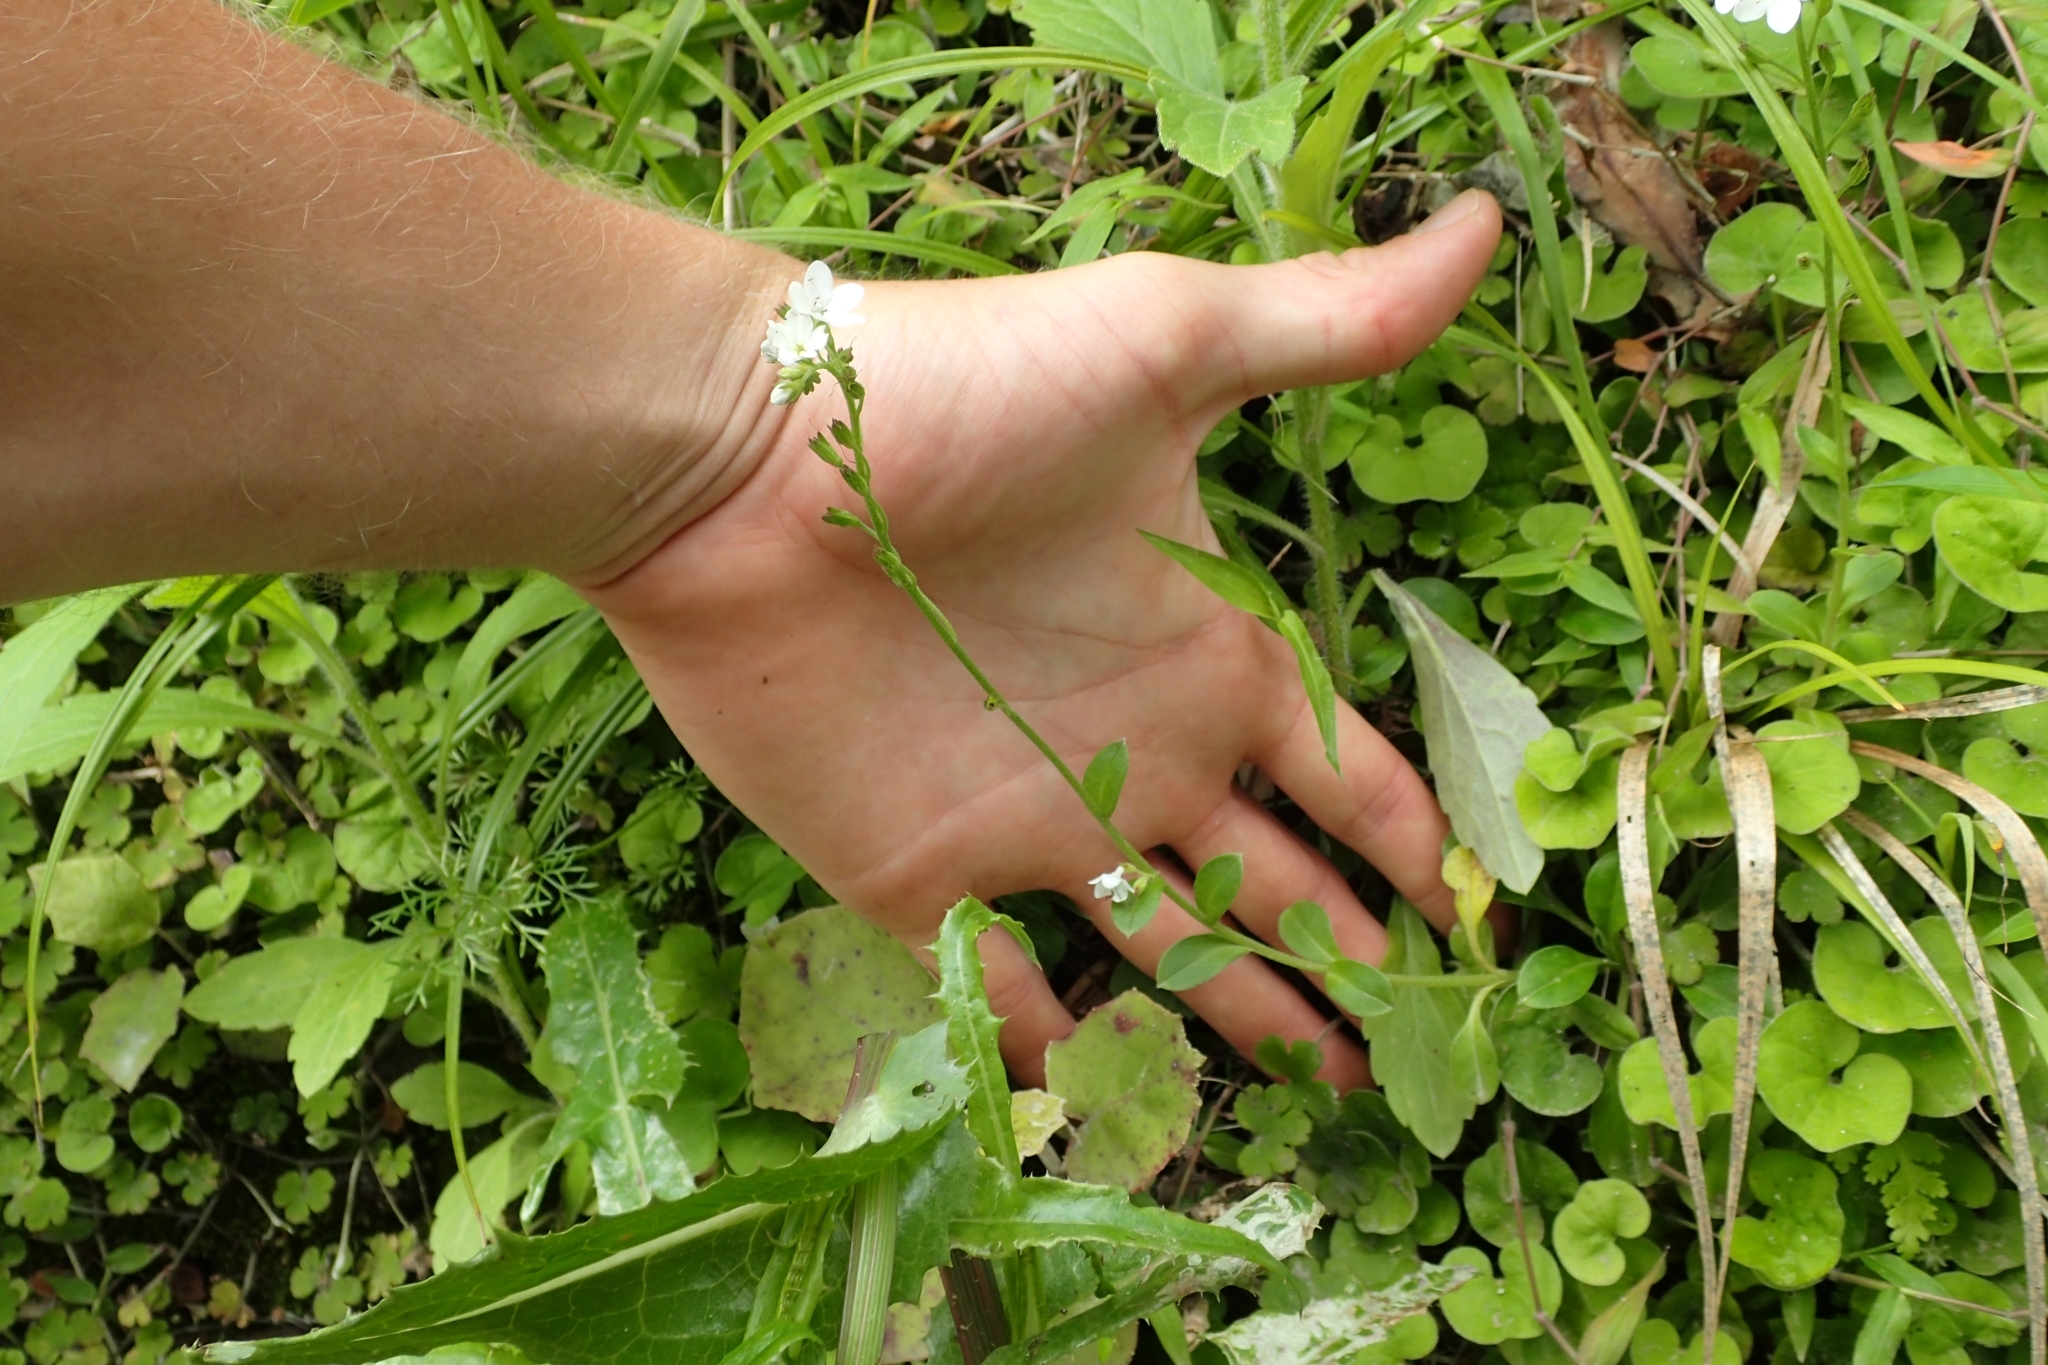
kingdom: Plantae
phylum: Tracheophyta
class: Magnoliopsida
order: Boraginales
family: Boraginaceae
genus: Myosotis
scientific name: Myosotis pansa
